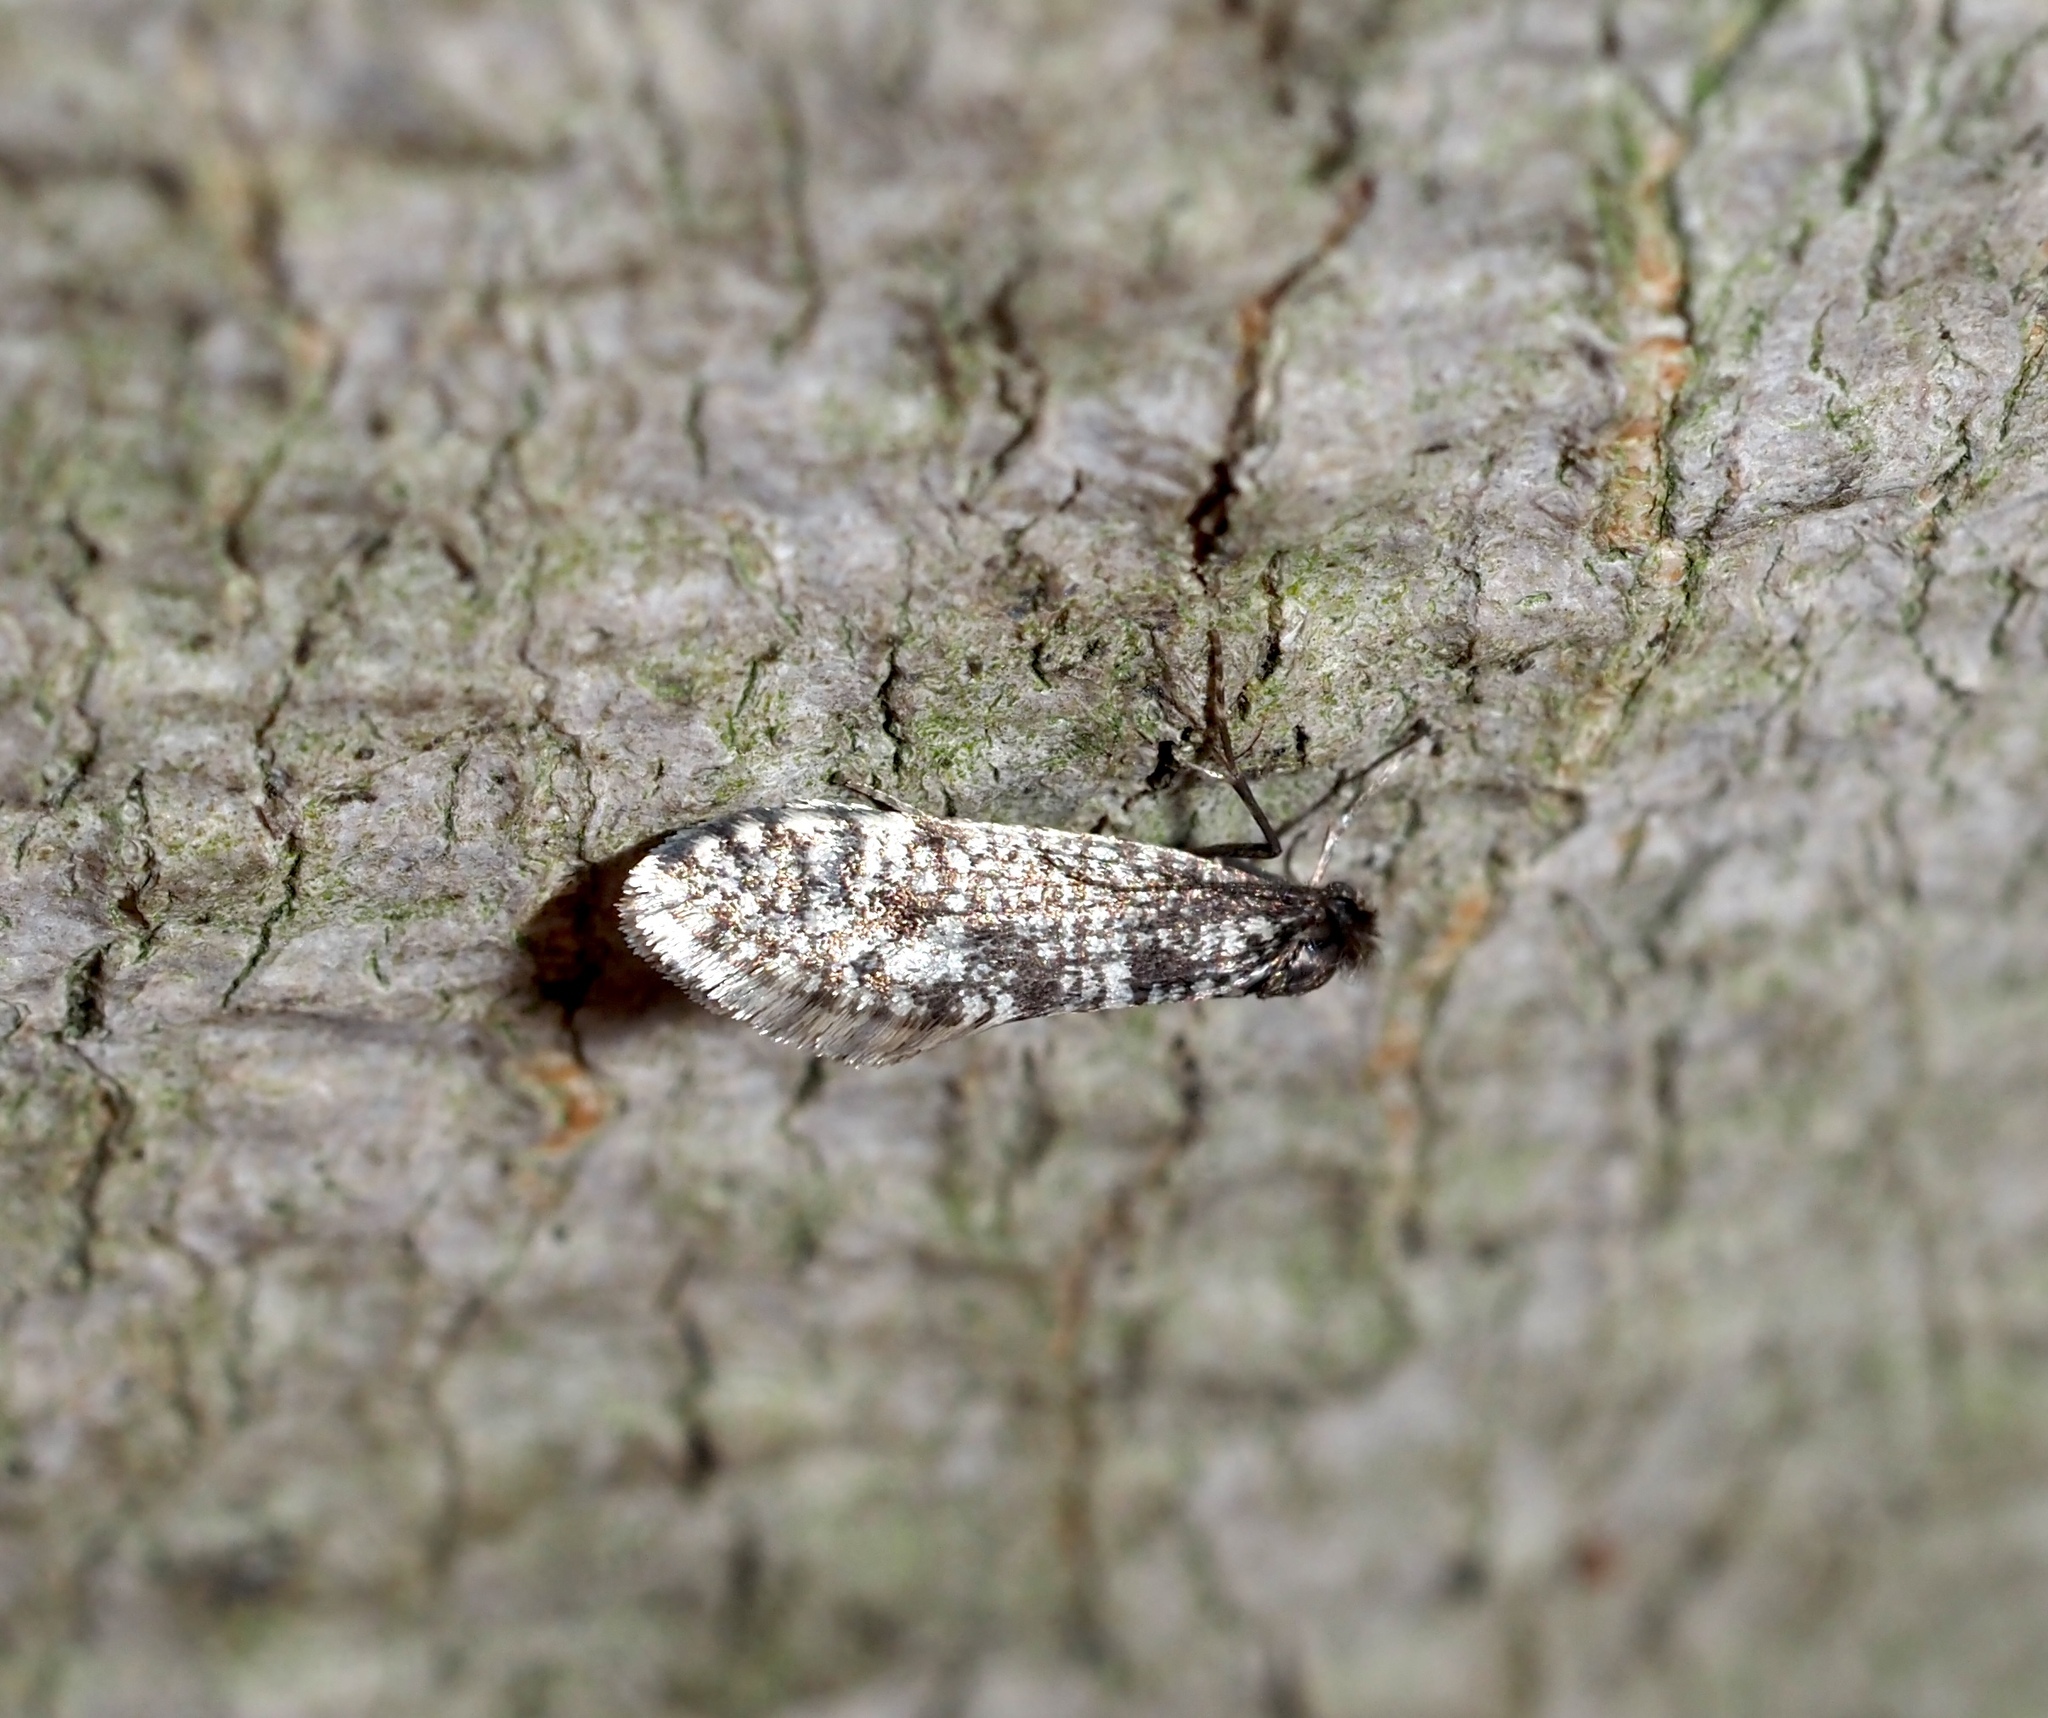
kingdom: Animalia
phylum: Arthropoda
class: Insecta
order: Lepidoptera
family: Psychidae
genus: Dahlica
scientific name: Dahlica walshella
